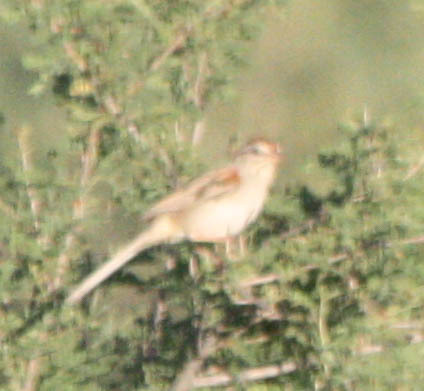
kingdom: Animalia
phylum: Chordata
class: Aves
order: Passeriformes
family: Passerellidae
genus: Peucaea
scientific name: Peucaea carpalis
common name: Rufous-winged sparrow
